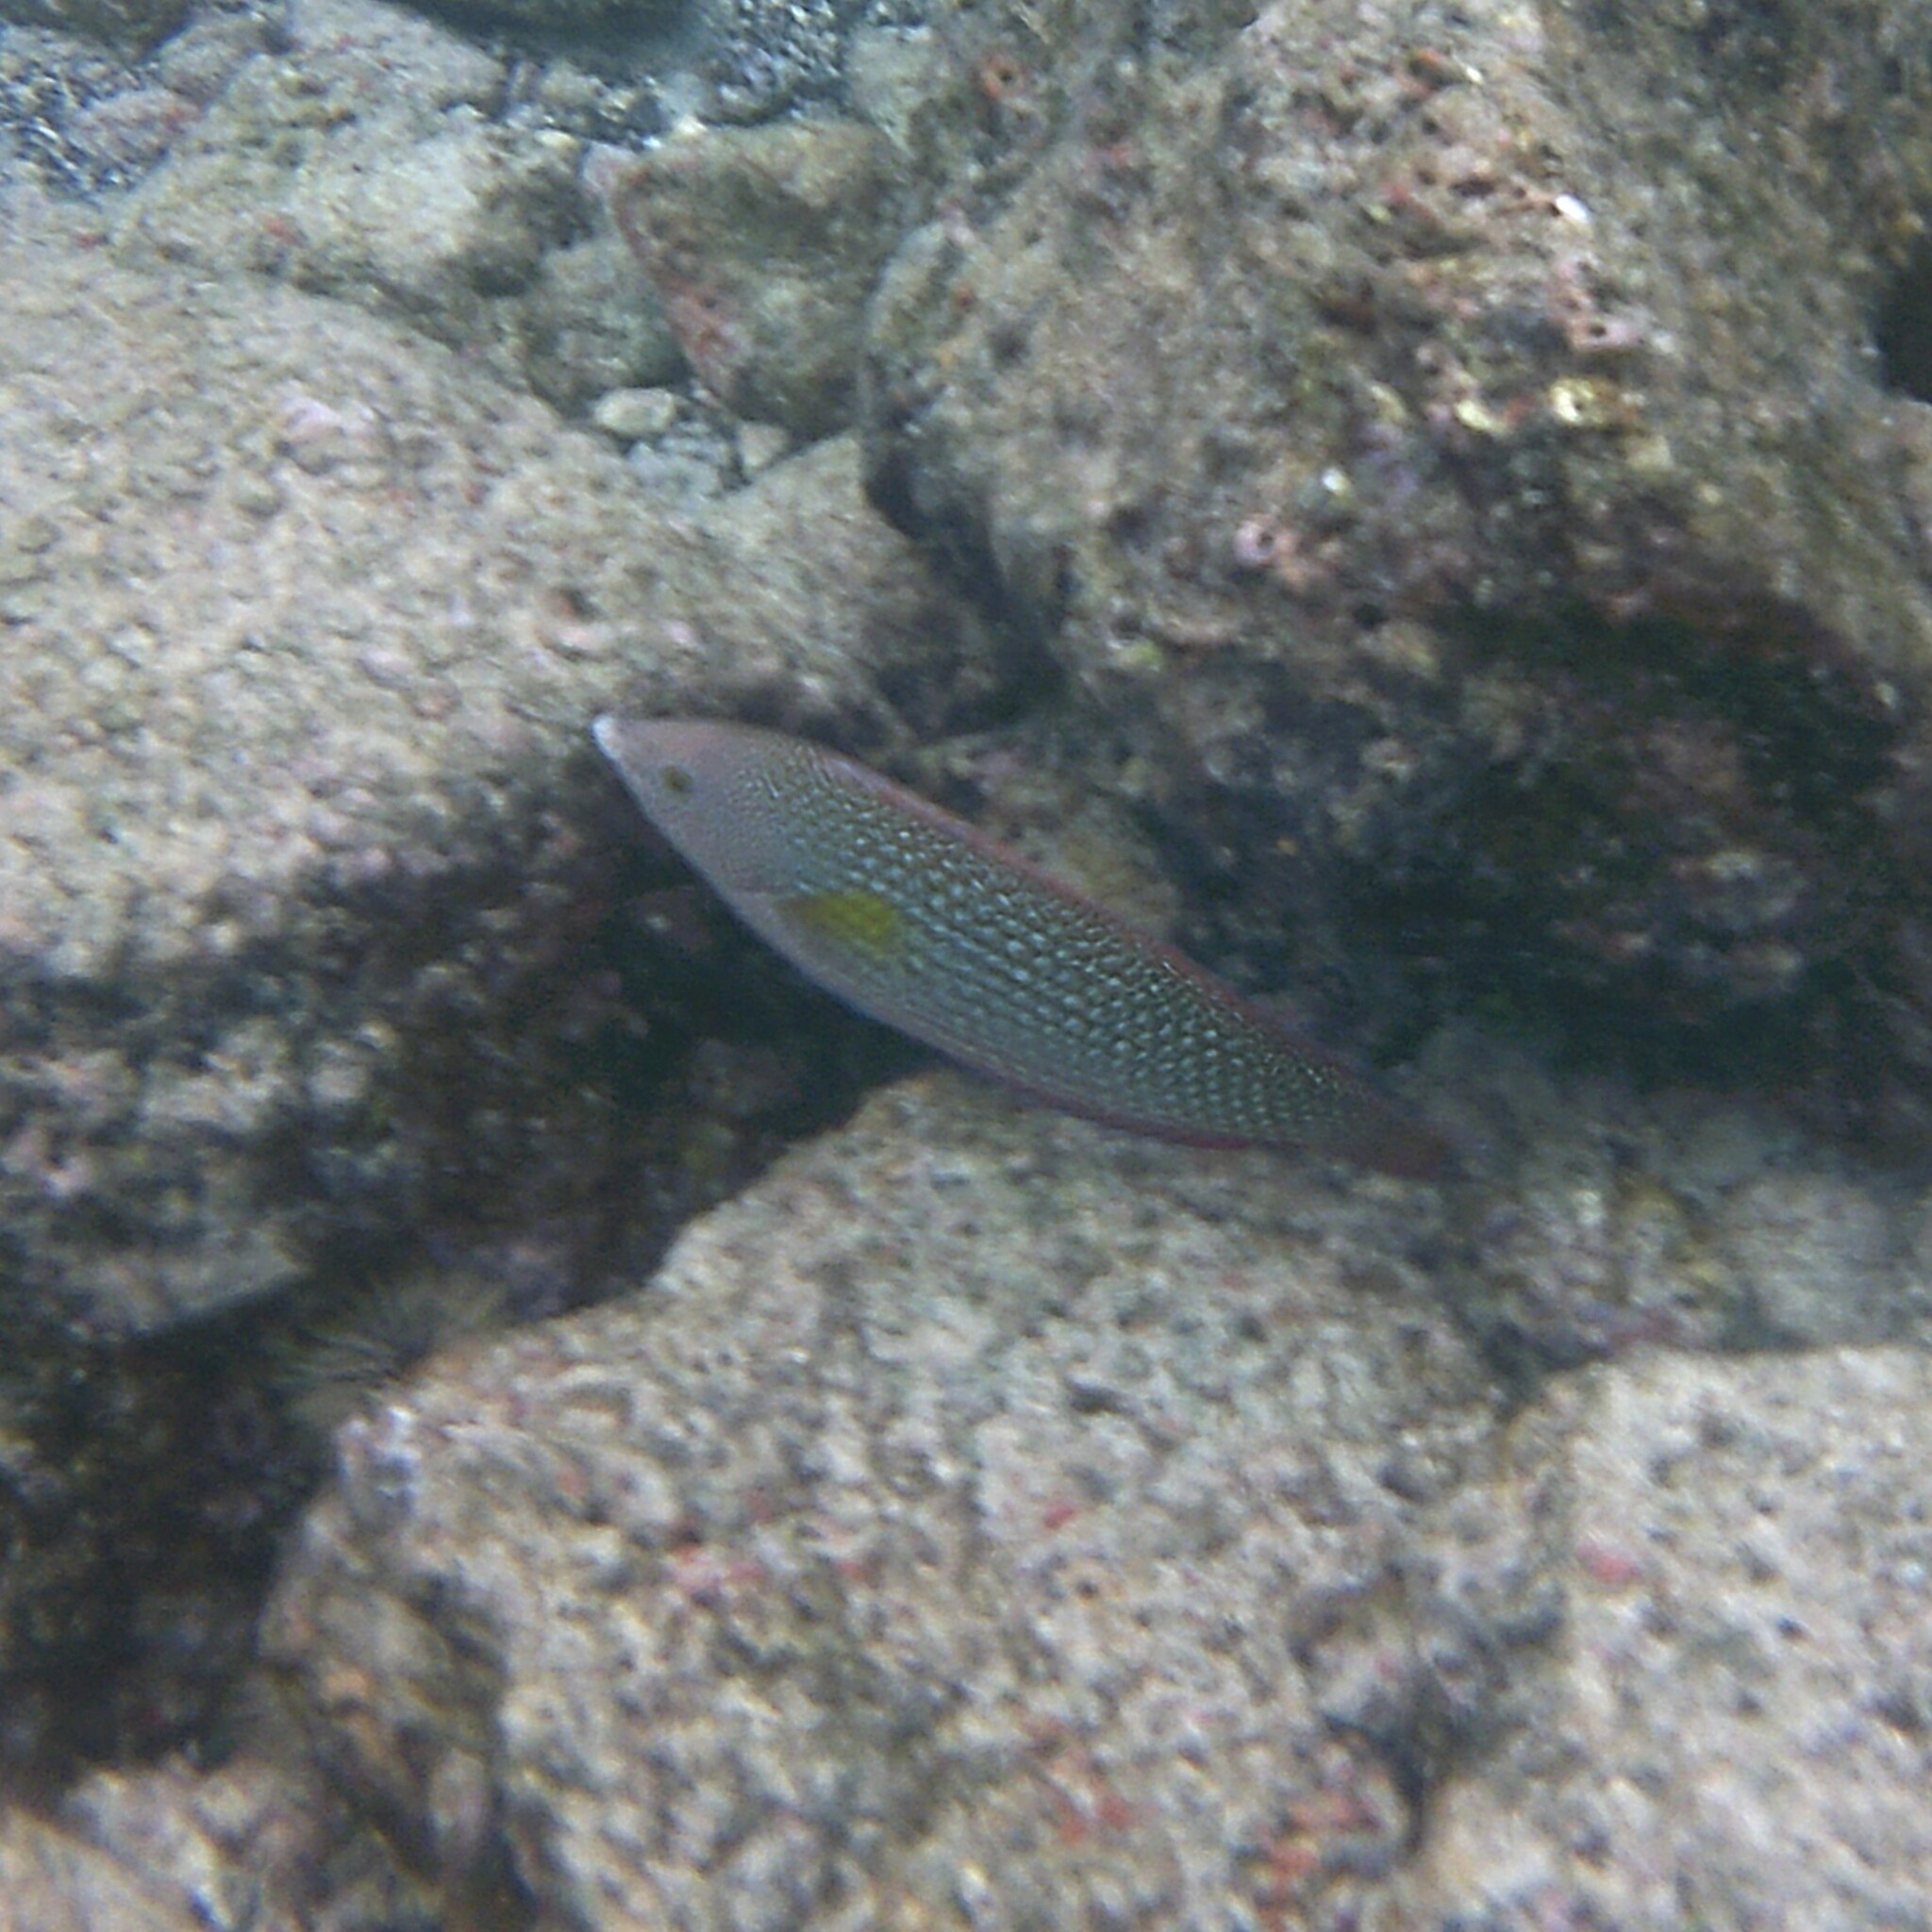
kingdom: Animalia
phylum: Chordata
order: Perciformes
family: Labridae
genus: Anampses
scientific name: Anampses cuvier
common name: Pearl wrasse
